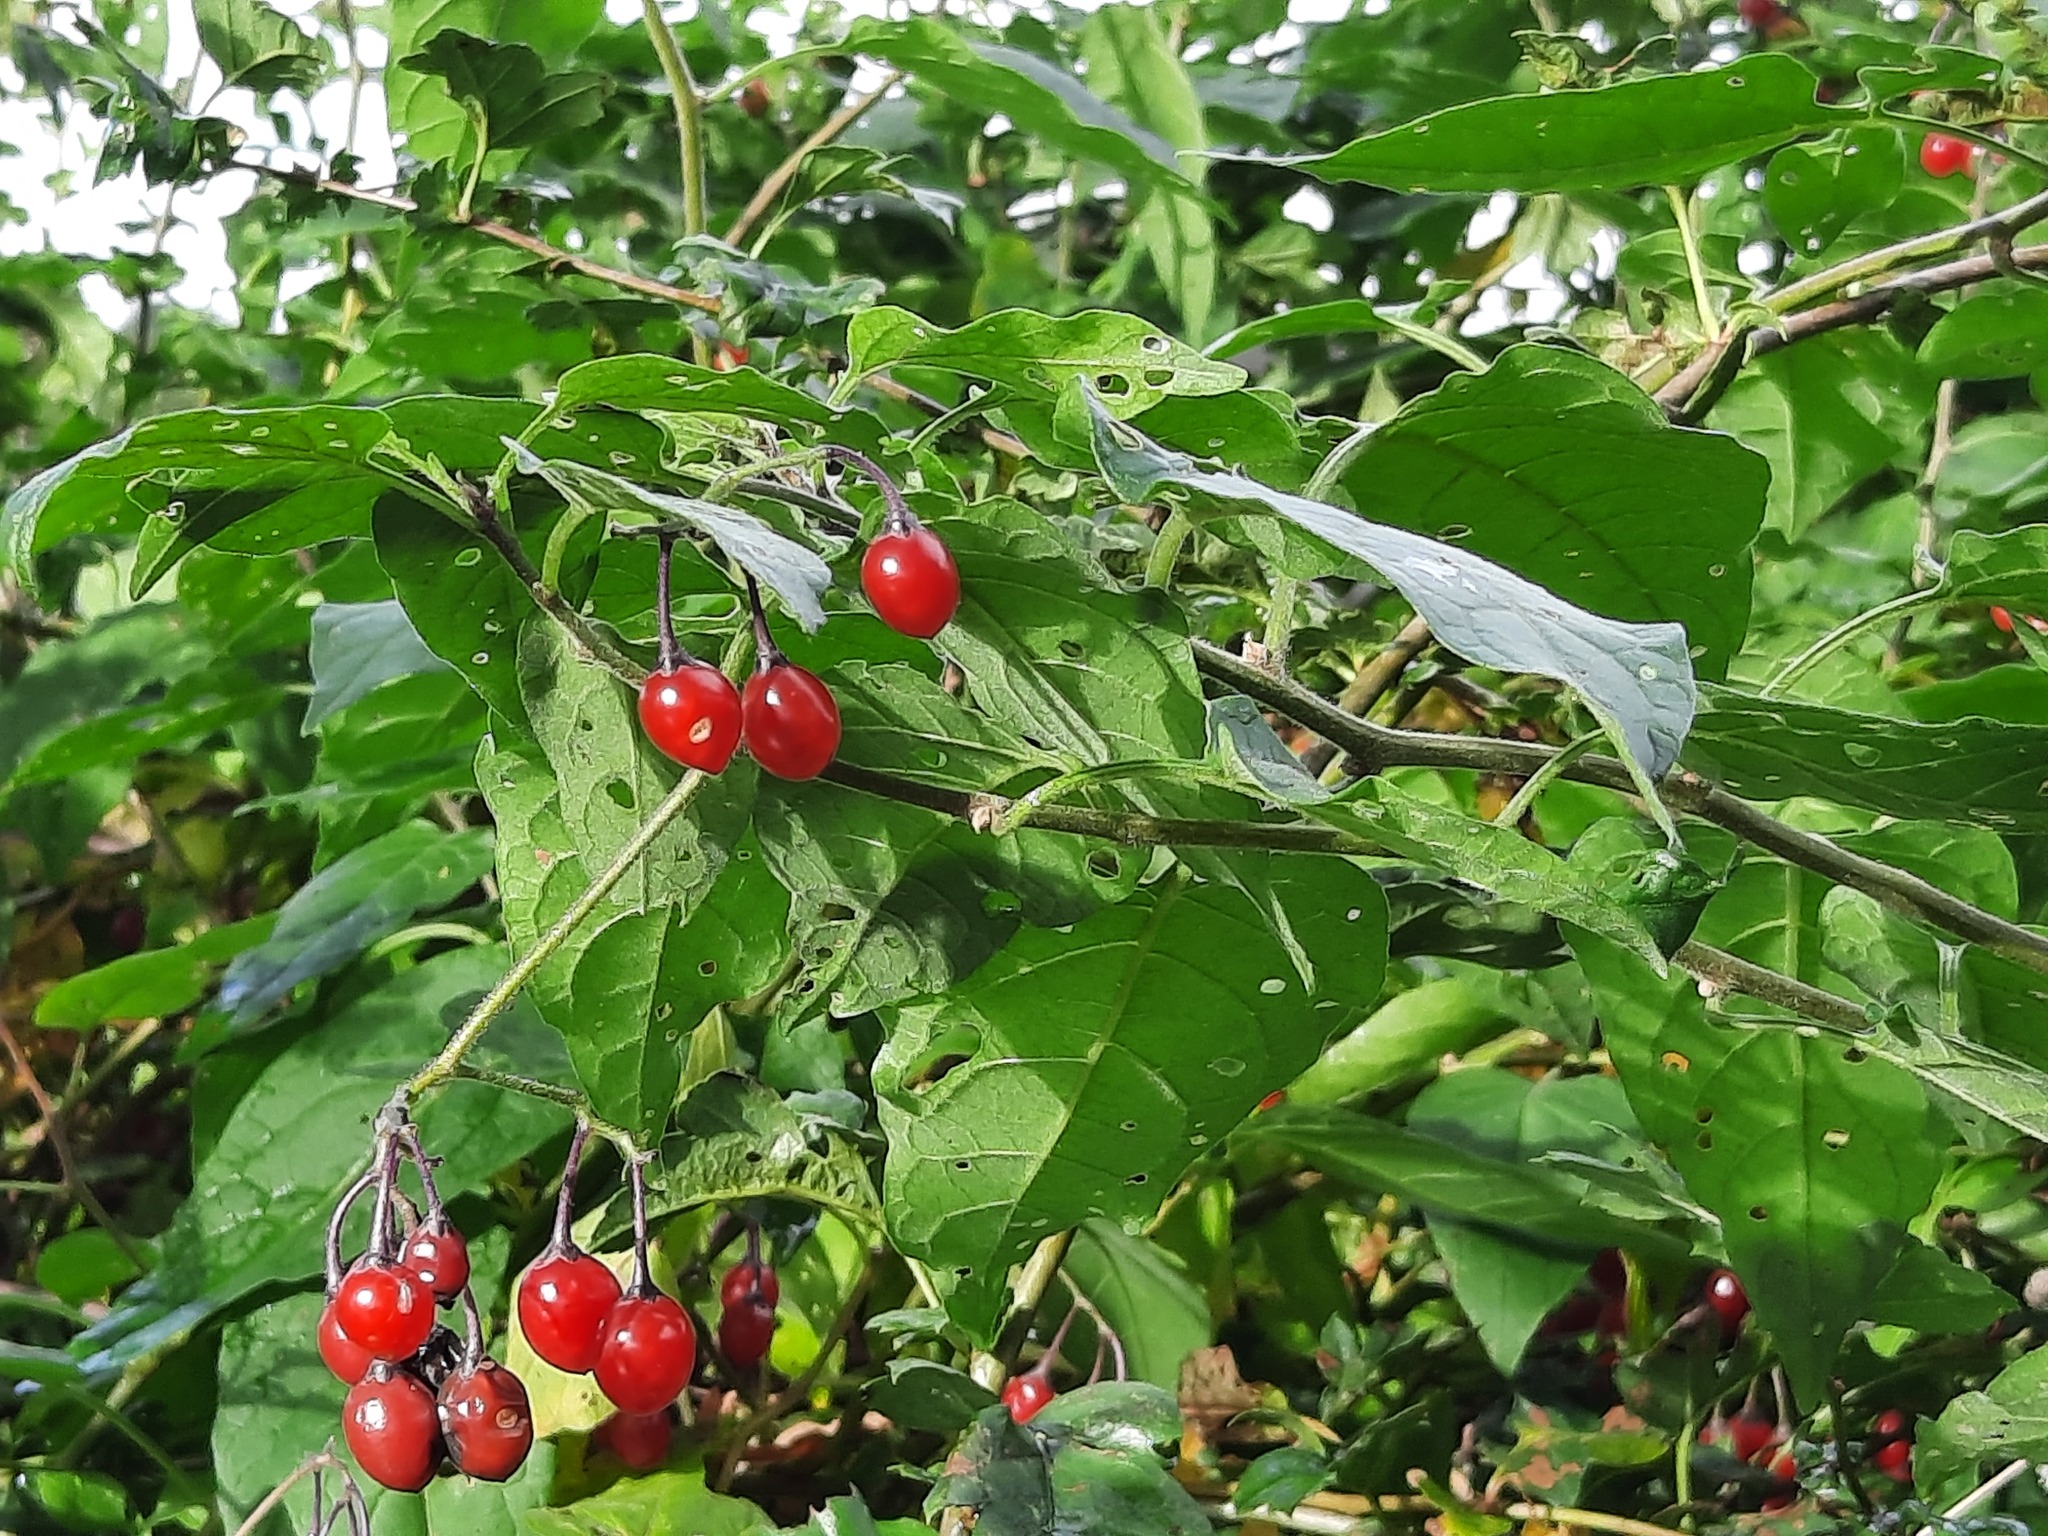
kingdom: Plantae
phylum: Tracheophyta
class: Magnoliopsida
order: Solanales
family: Solanaceae
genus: Solanum
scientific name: Solanum dulcamara
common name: Climbing nightshade
